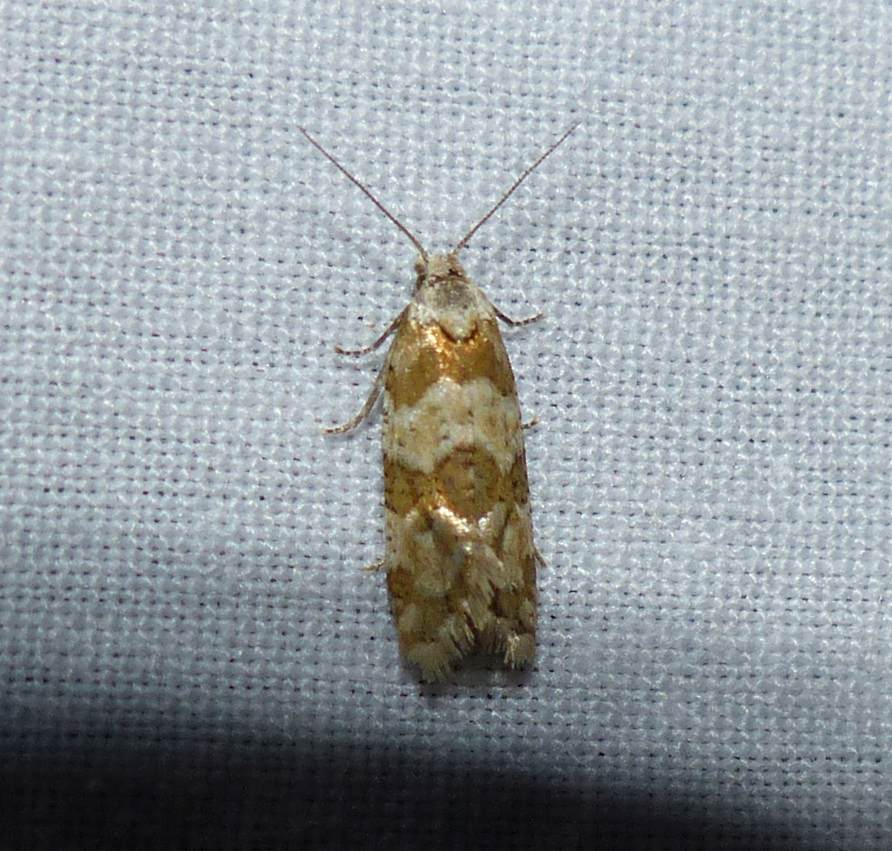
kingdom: Animalia
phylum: Arthropoda
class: Insecta
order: Lepidoptera
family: Tortricidae
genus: Aethes
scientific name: Aethes argentilimitana
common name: Silver-bordered aethes
